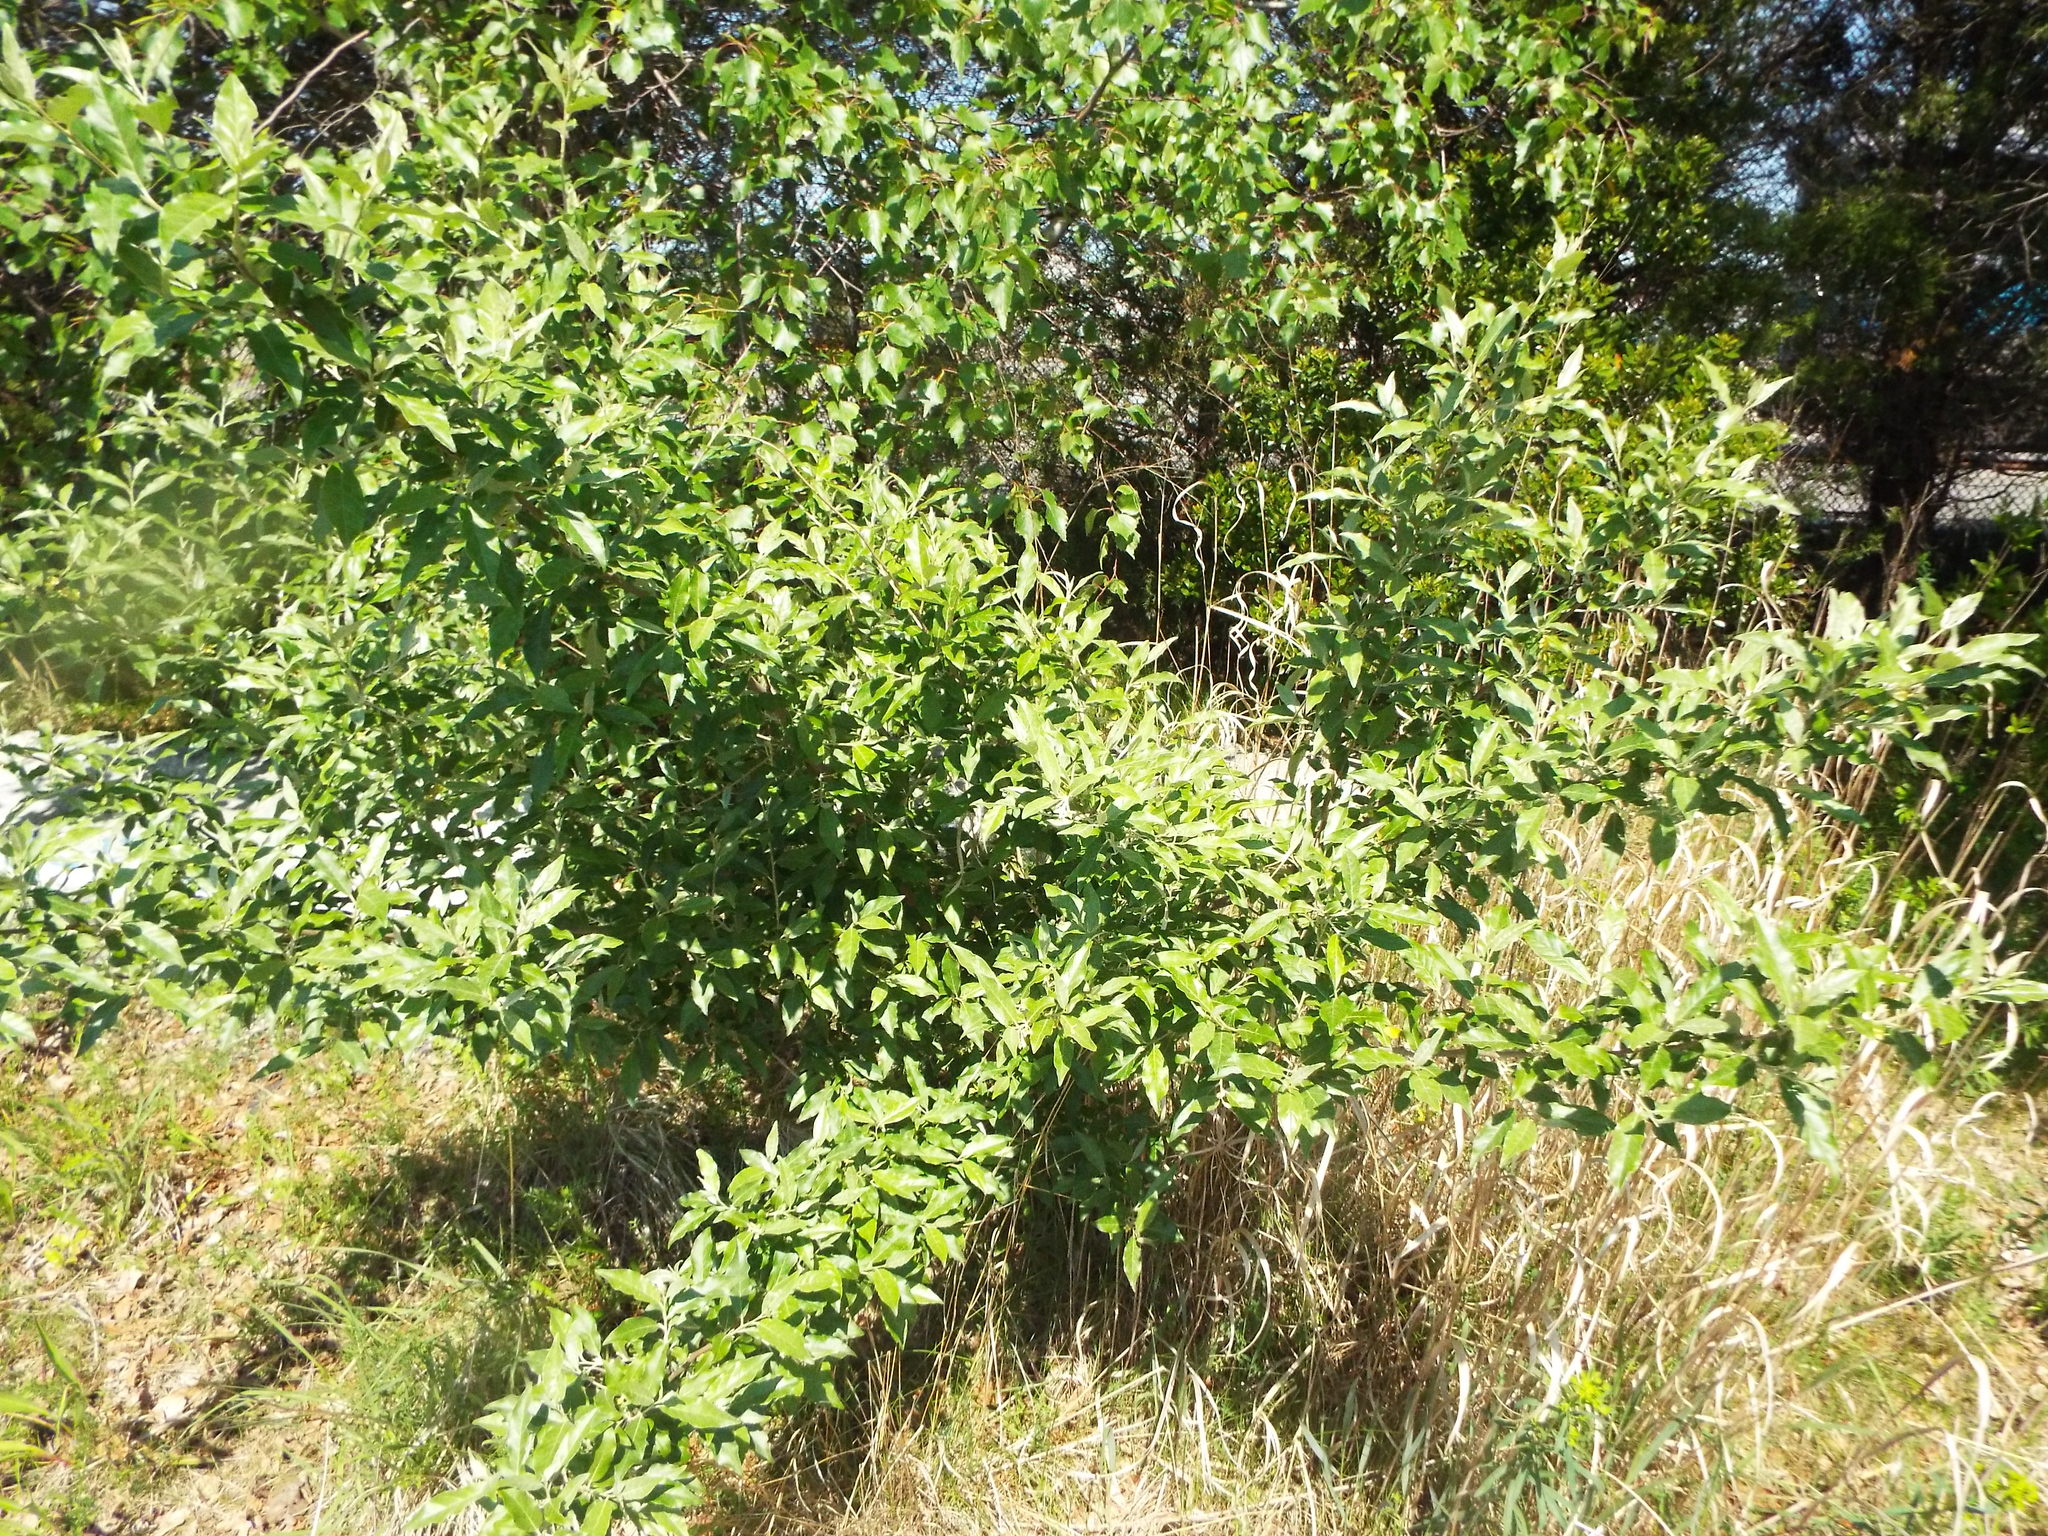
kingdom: Plantae
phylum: Tracheophyta
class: Magnoliopsida
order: Rosales
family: Elaeagnaceae
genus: Elaeagnus
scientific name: Elaeagnus umbellata
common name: Autumn olive
